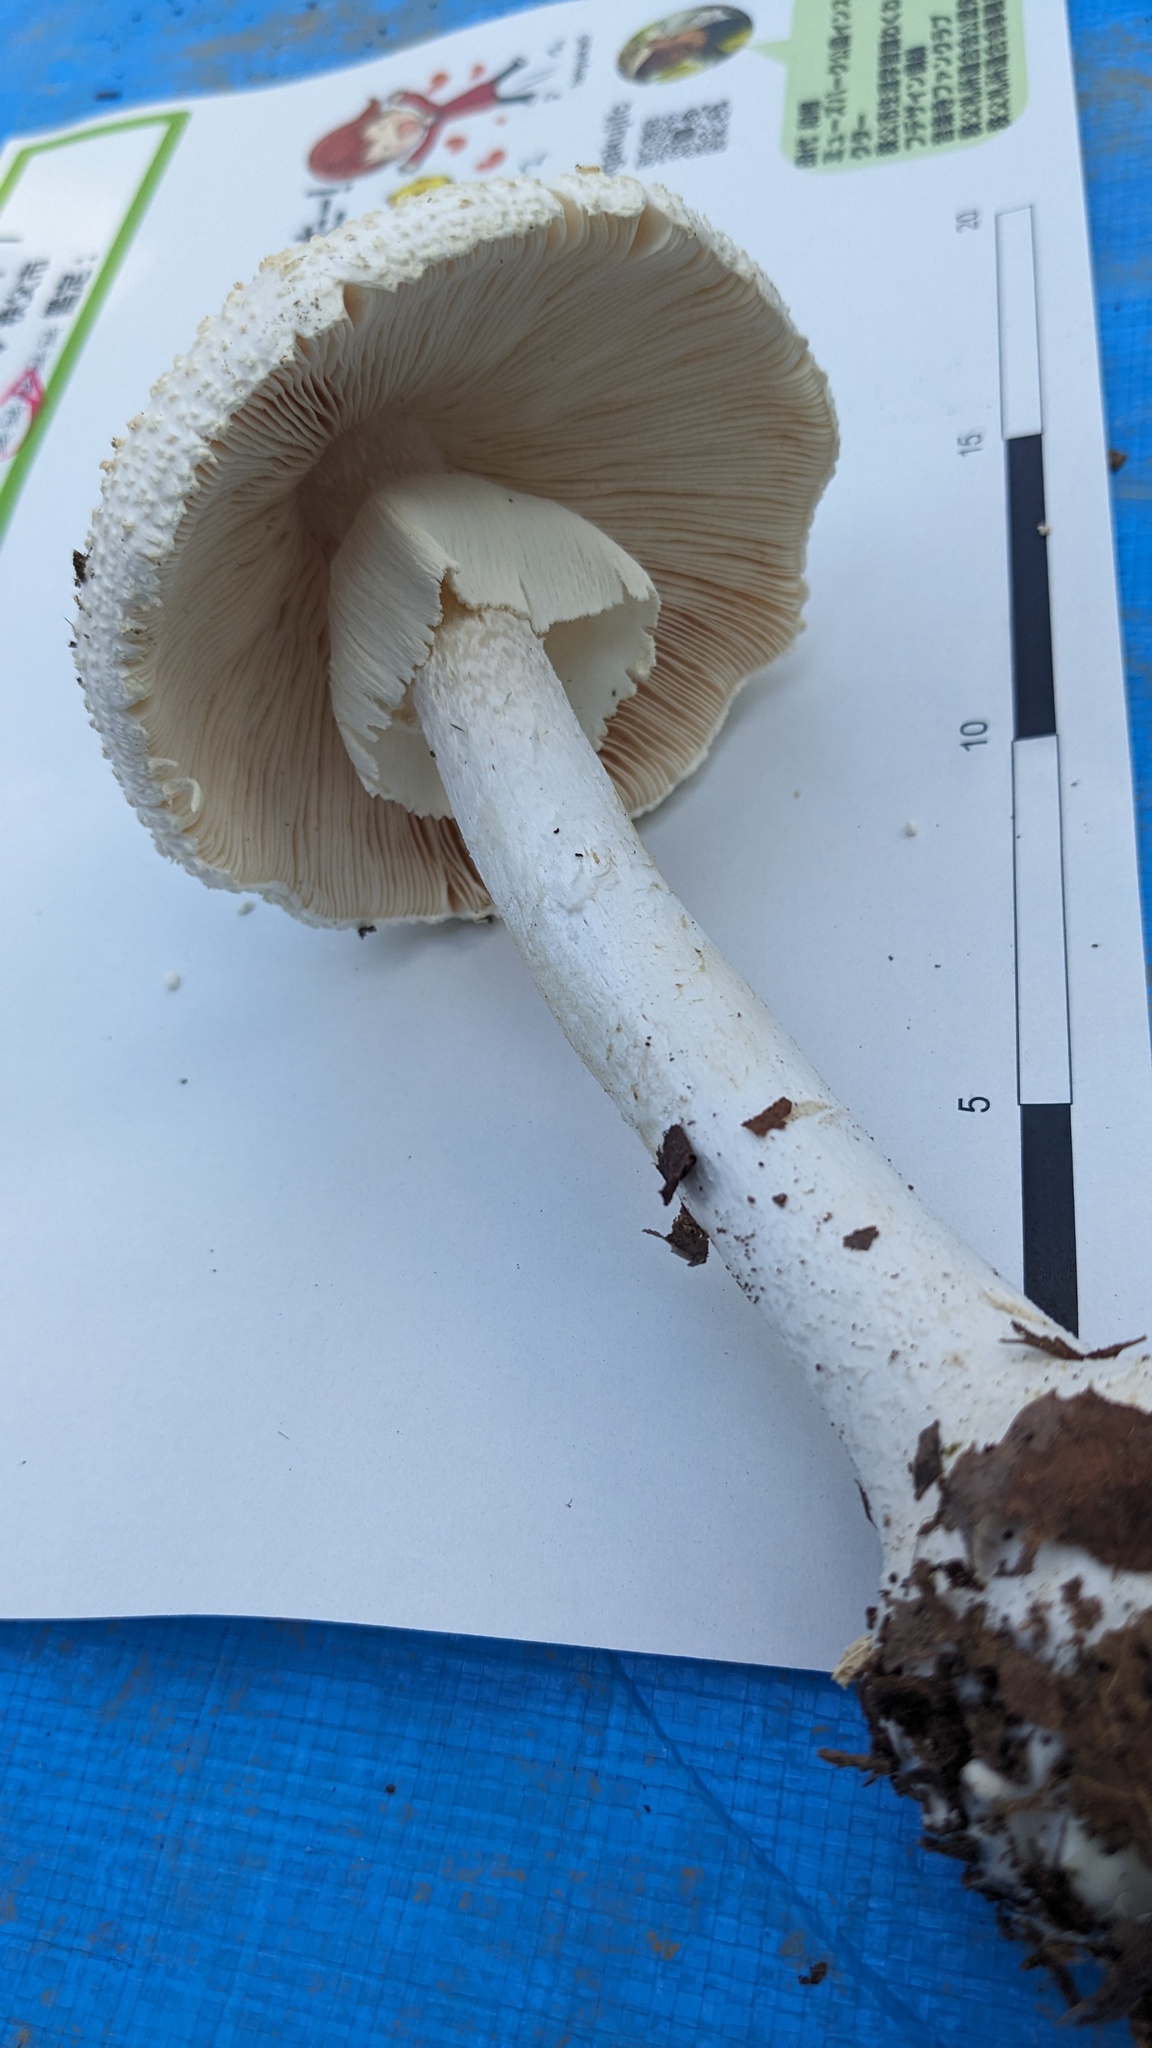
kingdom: Fungi
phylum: Basidiomycota
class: Agaricomycetes
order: Agaricales
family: Amanitaceae
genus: Amanita
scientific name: Amanita sphaerobulbosa
